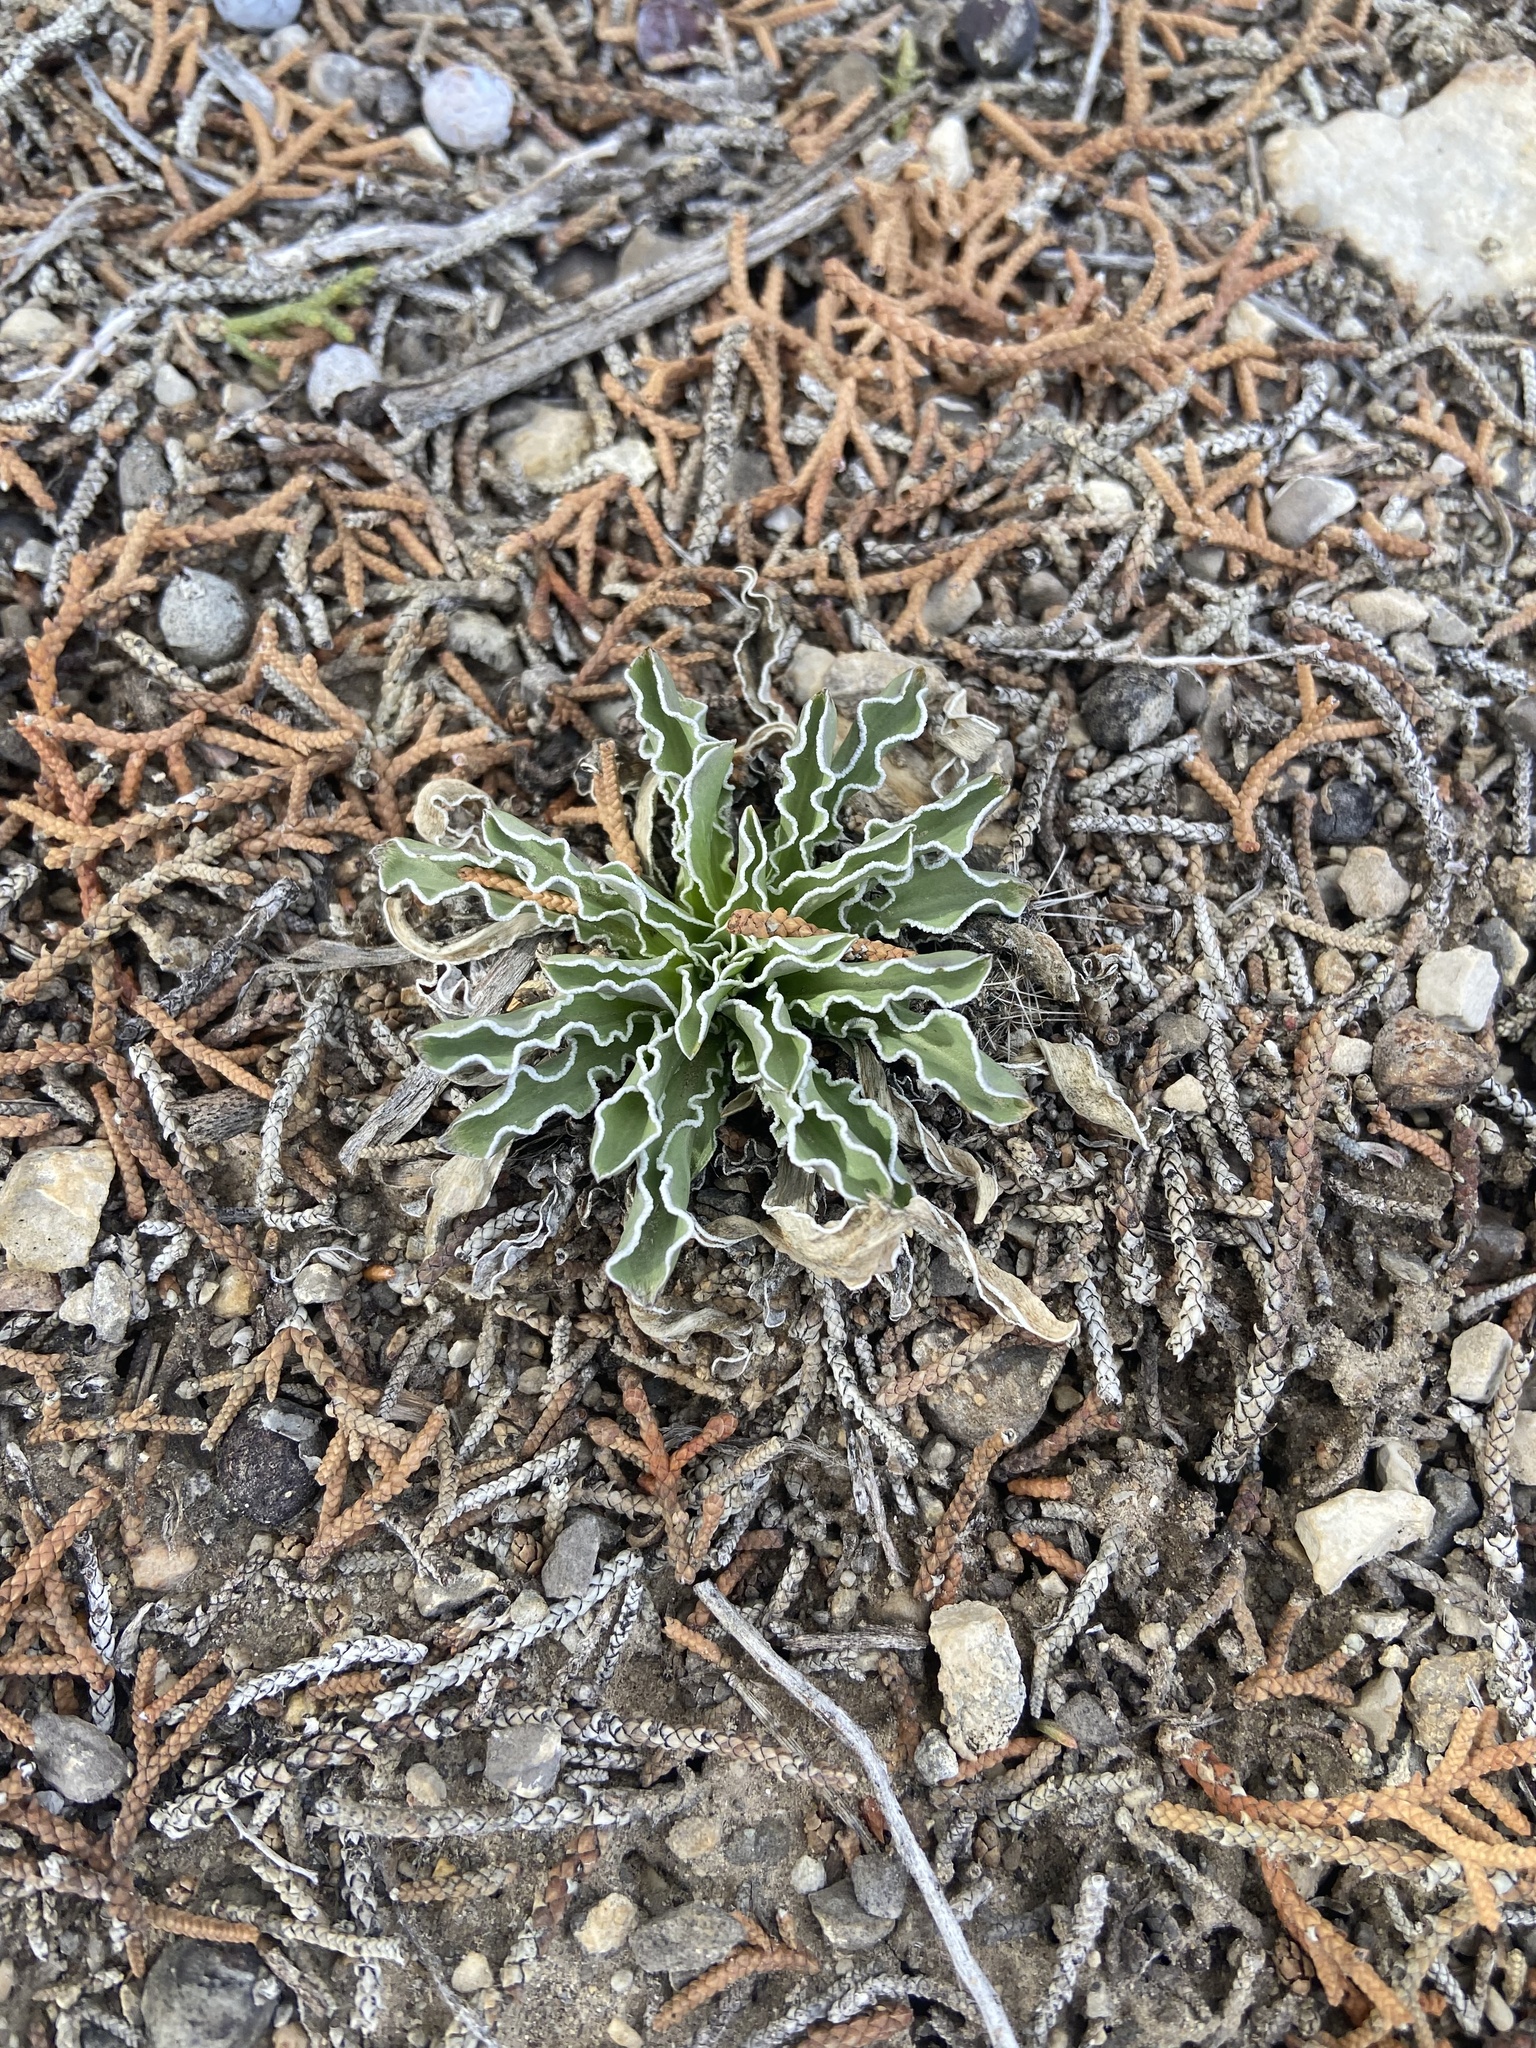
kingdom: Plantae
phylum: Tracheophyta
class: Magnoliopsida
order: Gentianales
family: Gentianaceae
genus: Frasera
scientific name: Frasera albomarginata
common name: Desert frasera
